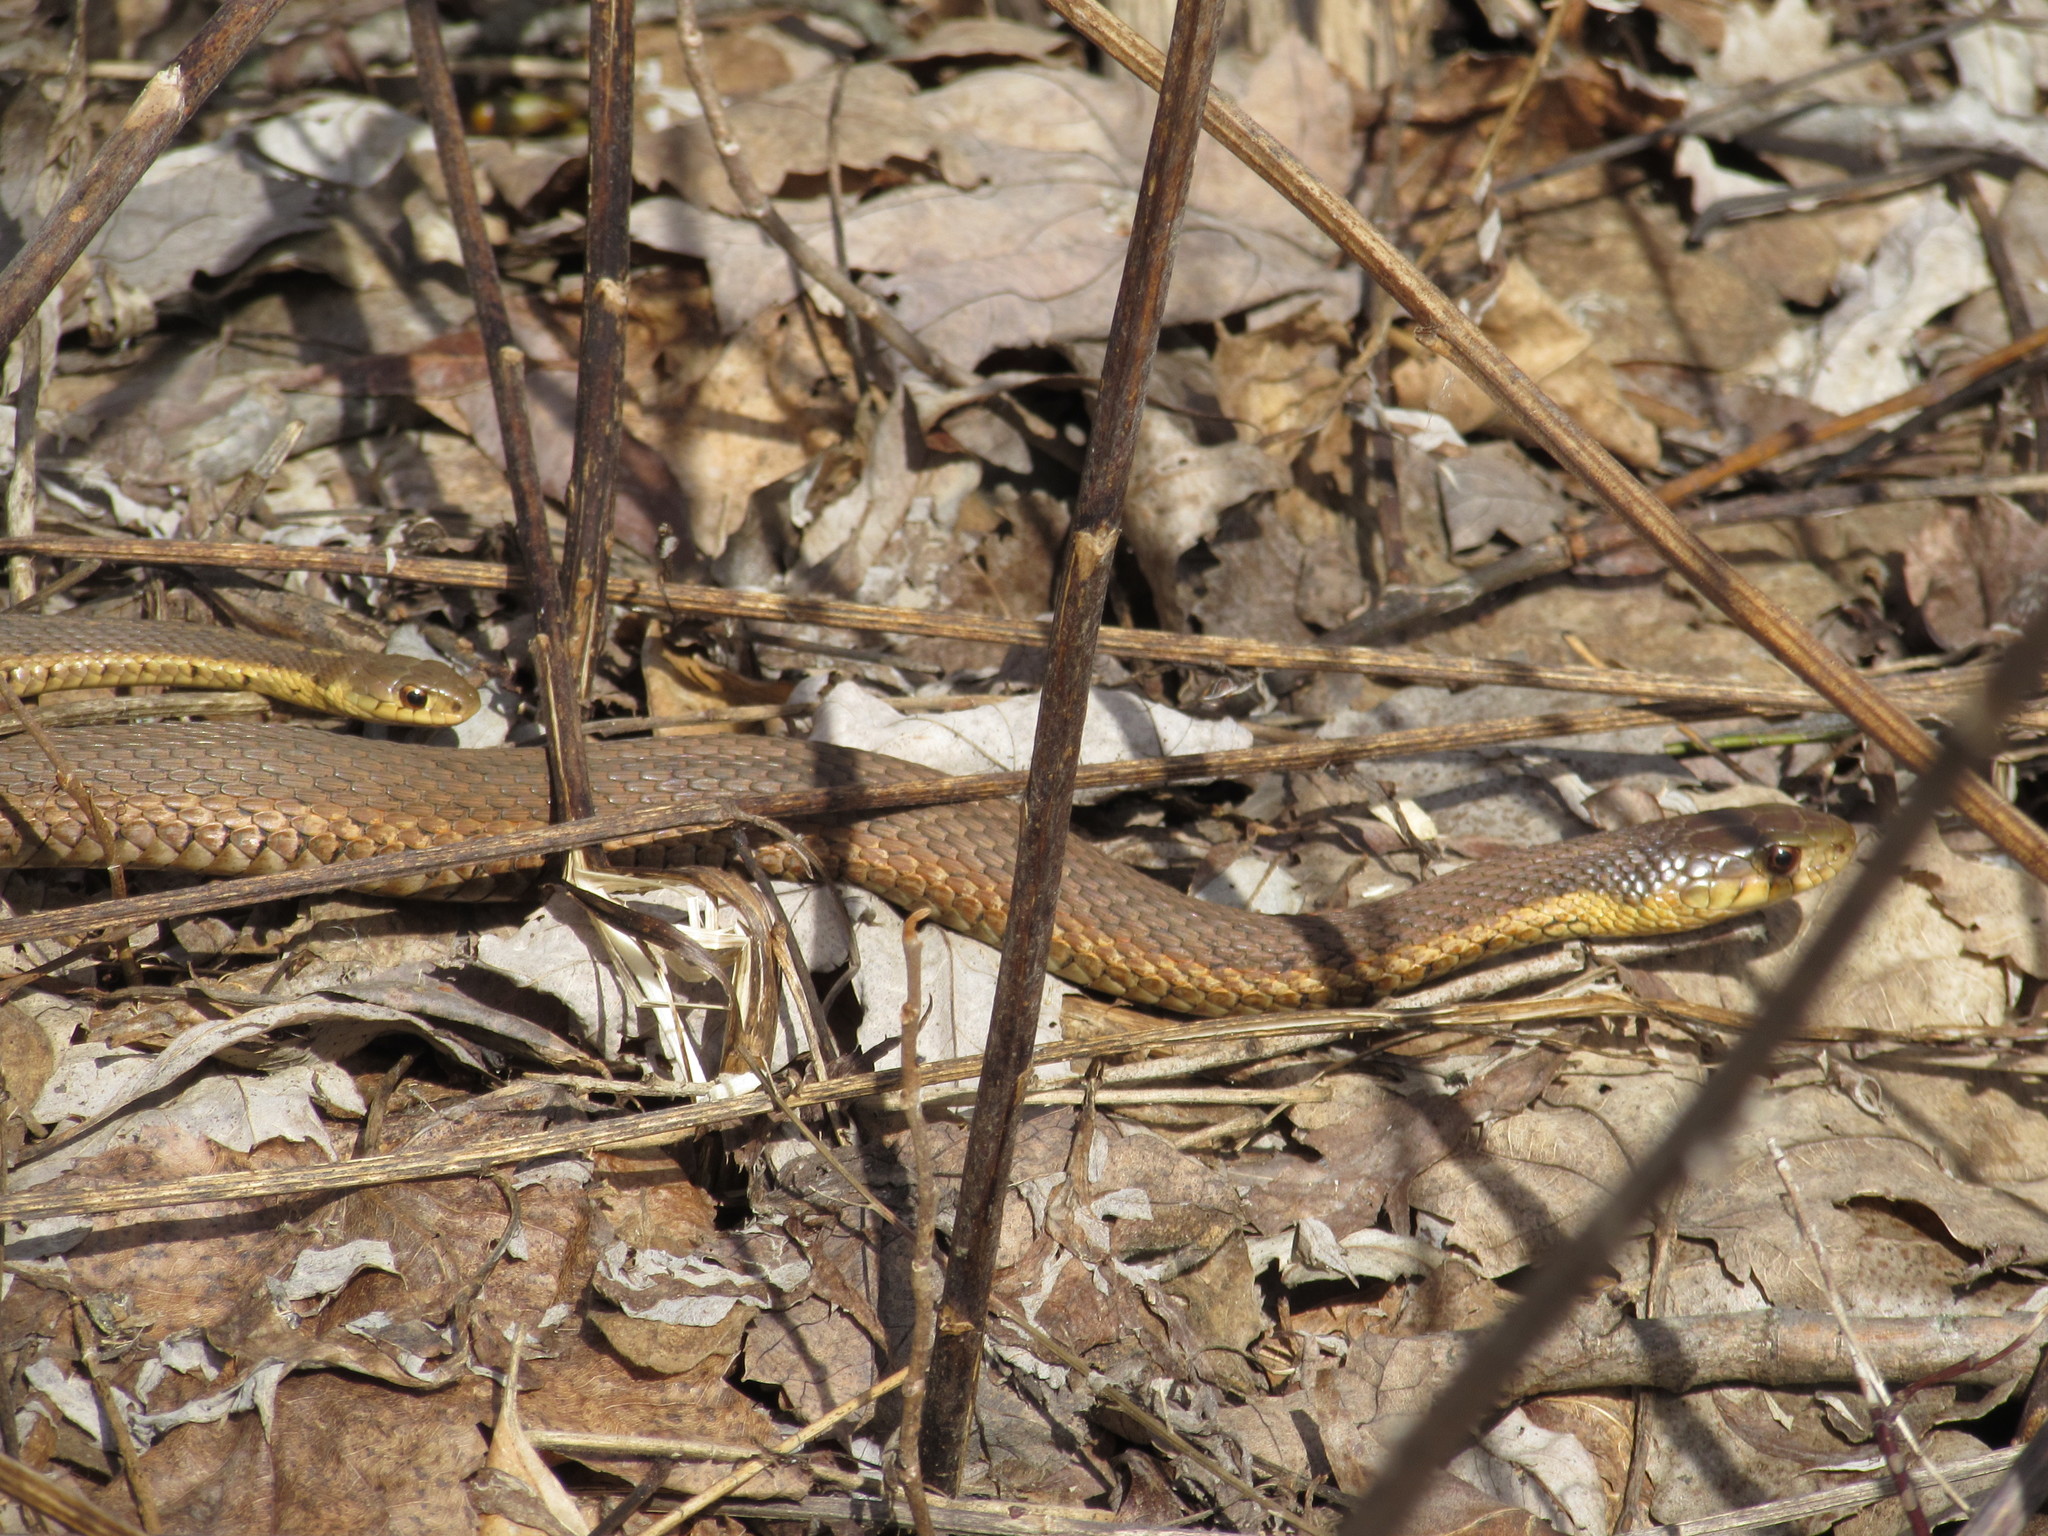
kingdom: Animalia
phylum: Chordata
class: Squamata
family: Colubridae
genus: Thamnophis
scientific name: Thamnophis sirtalis
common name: Common garter snake
